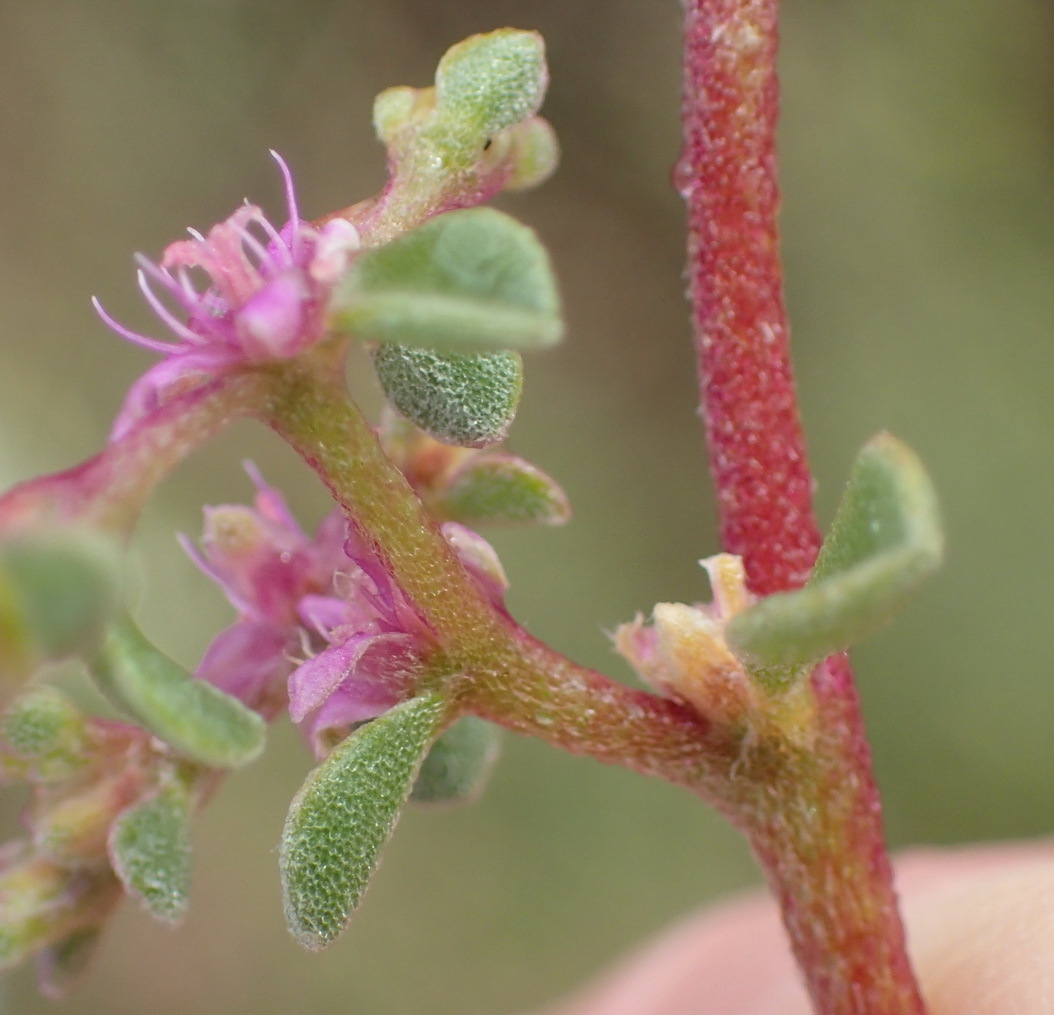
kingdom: Plantae
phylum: Tracheophyta
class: Magnoliopsida
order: Caryophyllales
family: Aizoaceae
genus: Aizoon
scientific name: Aizoon portulacaceum
